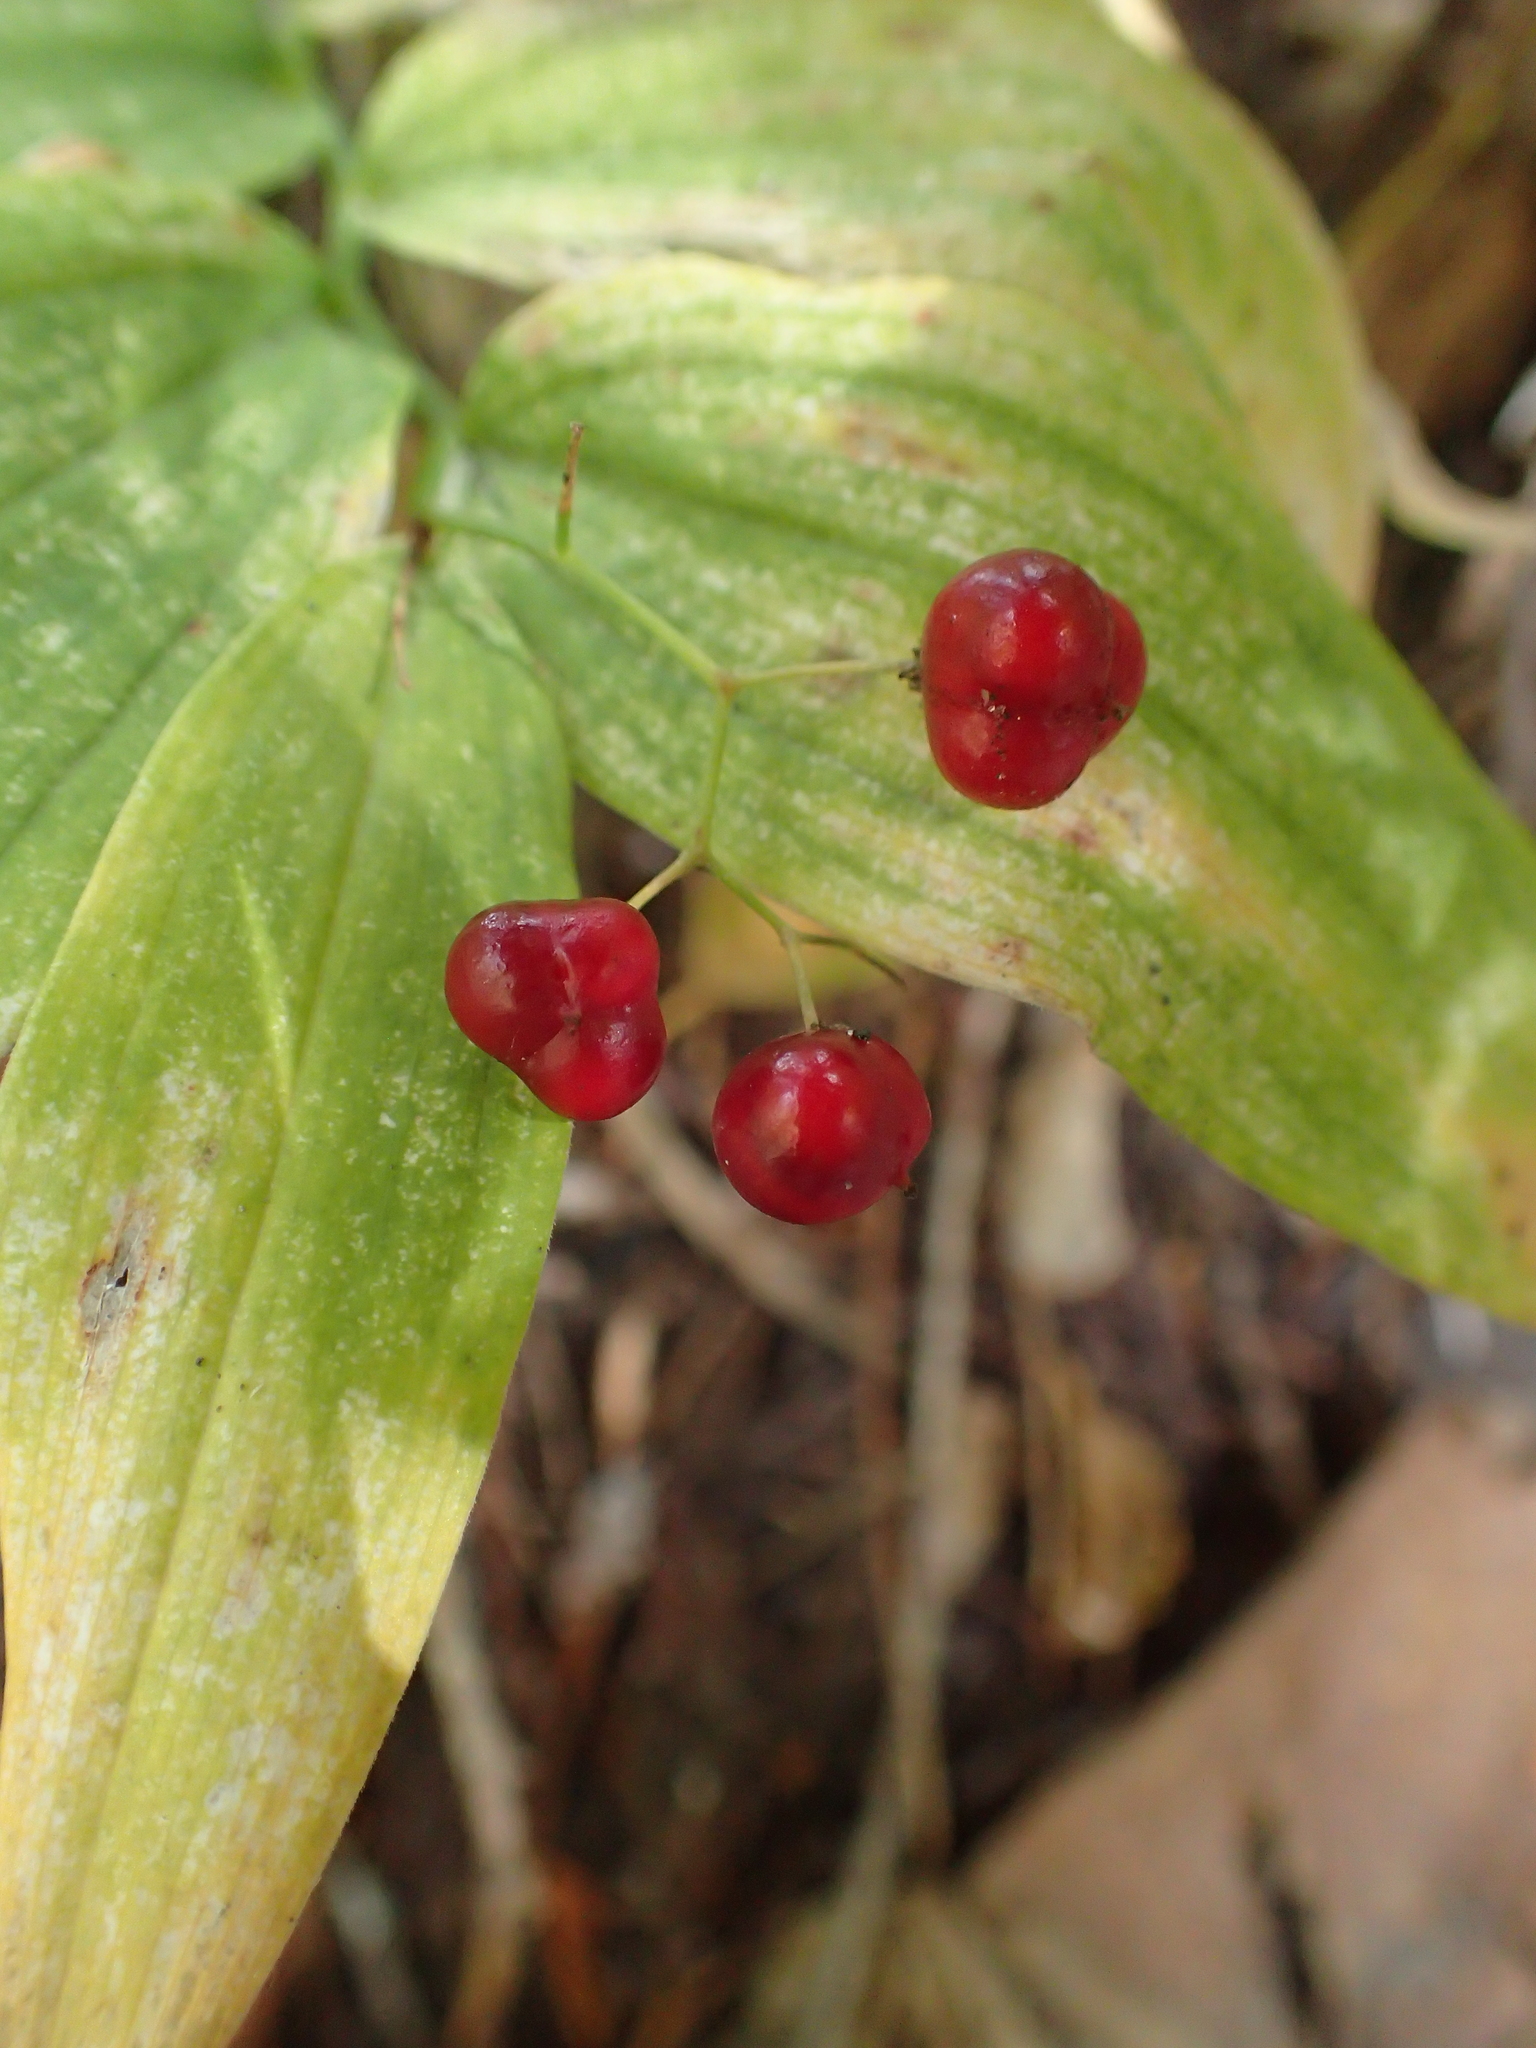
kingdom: Plantae
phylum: Tracheophyta
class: Liliopsida
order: Asparagales
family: Asparagaceae
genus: Maianthemum
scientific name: Maianthemum stellatum
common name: Little false solomon's seal
